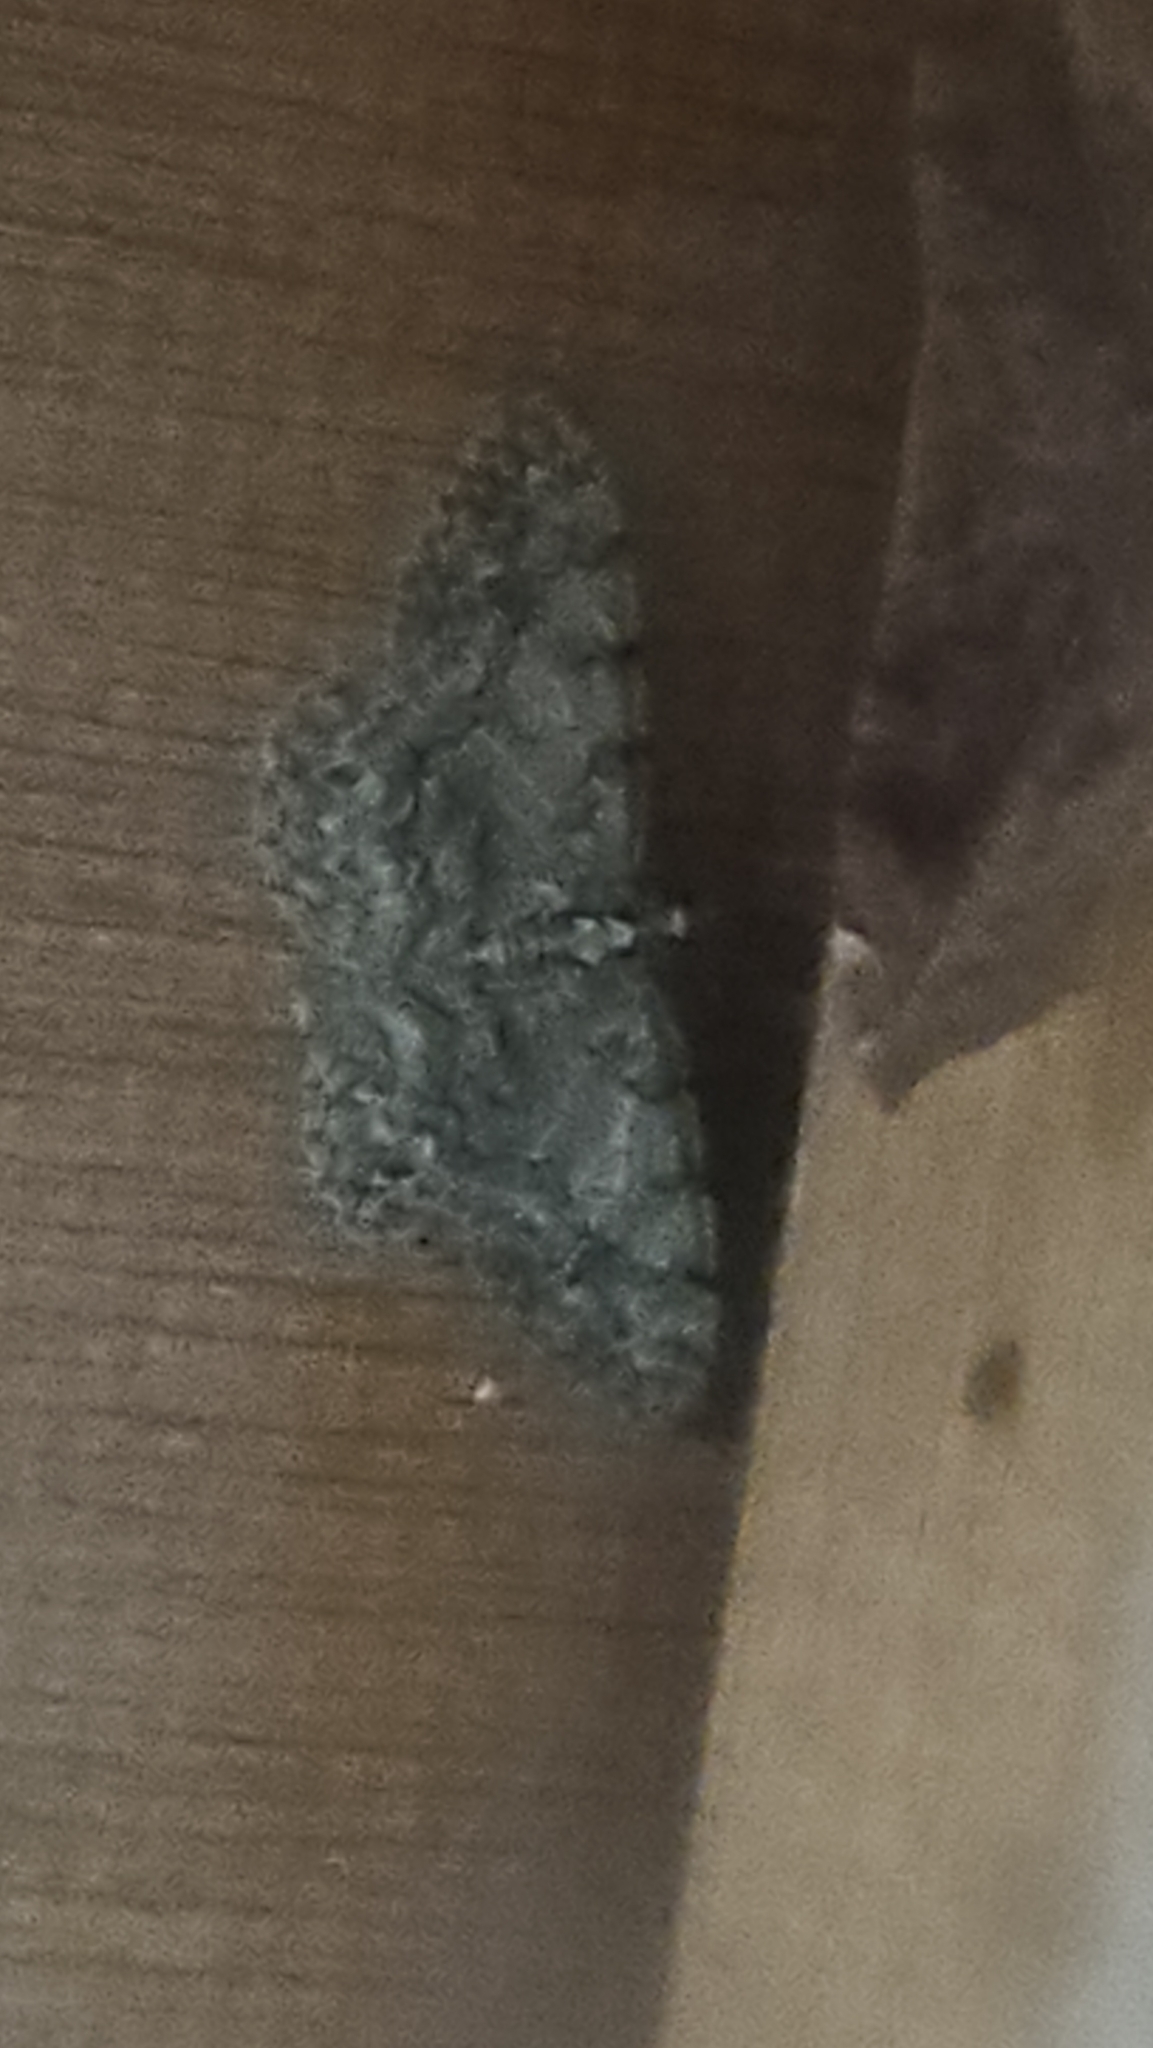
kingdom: Animalia
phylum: Arthropoda
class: Insecta
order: Lepidoptera
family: Geometridae
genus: Protoboarmia
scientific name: Protoboarmia porcelaria
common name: Porcelain gray
